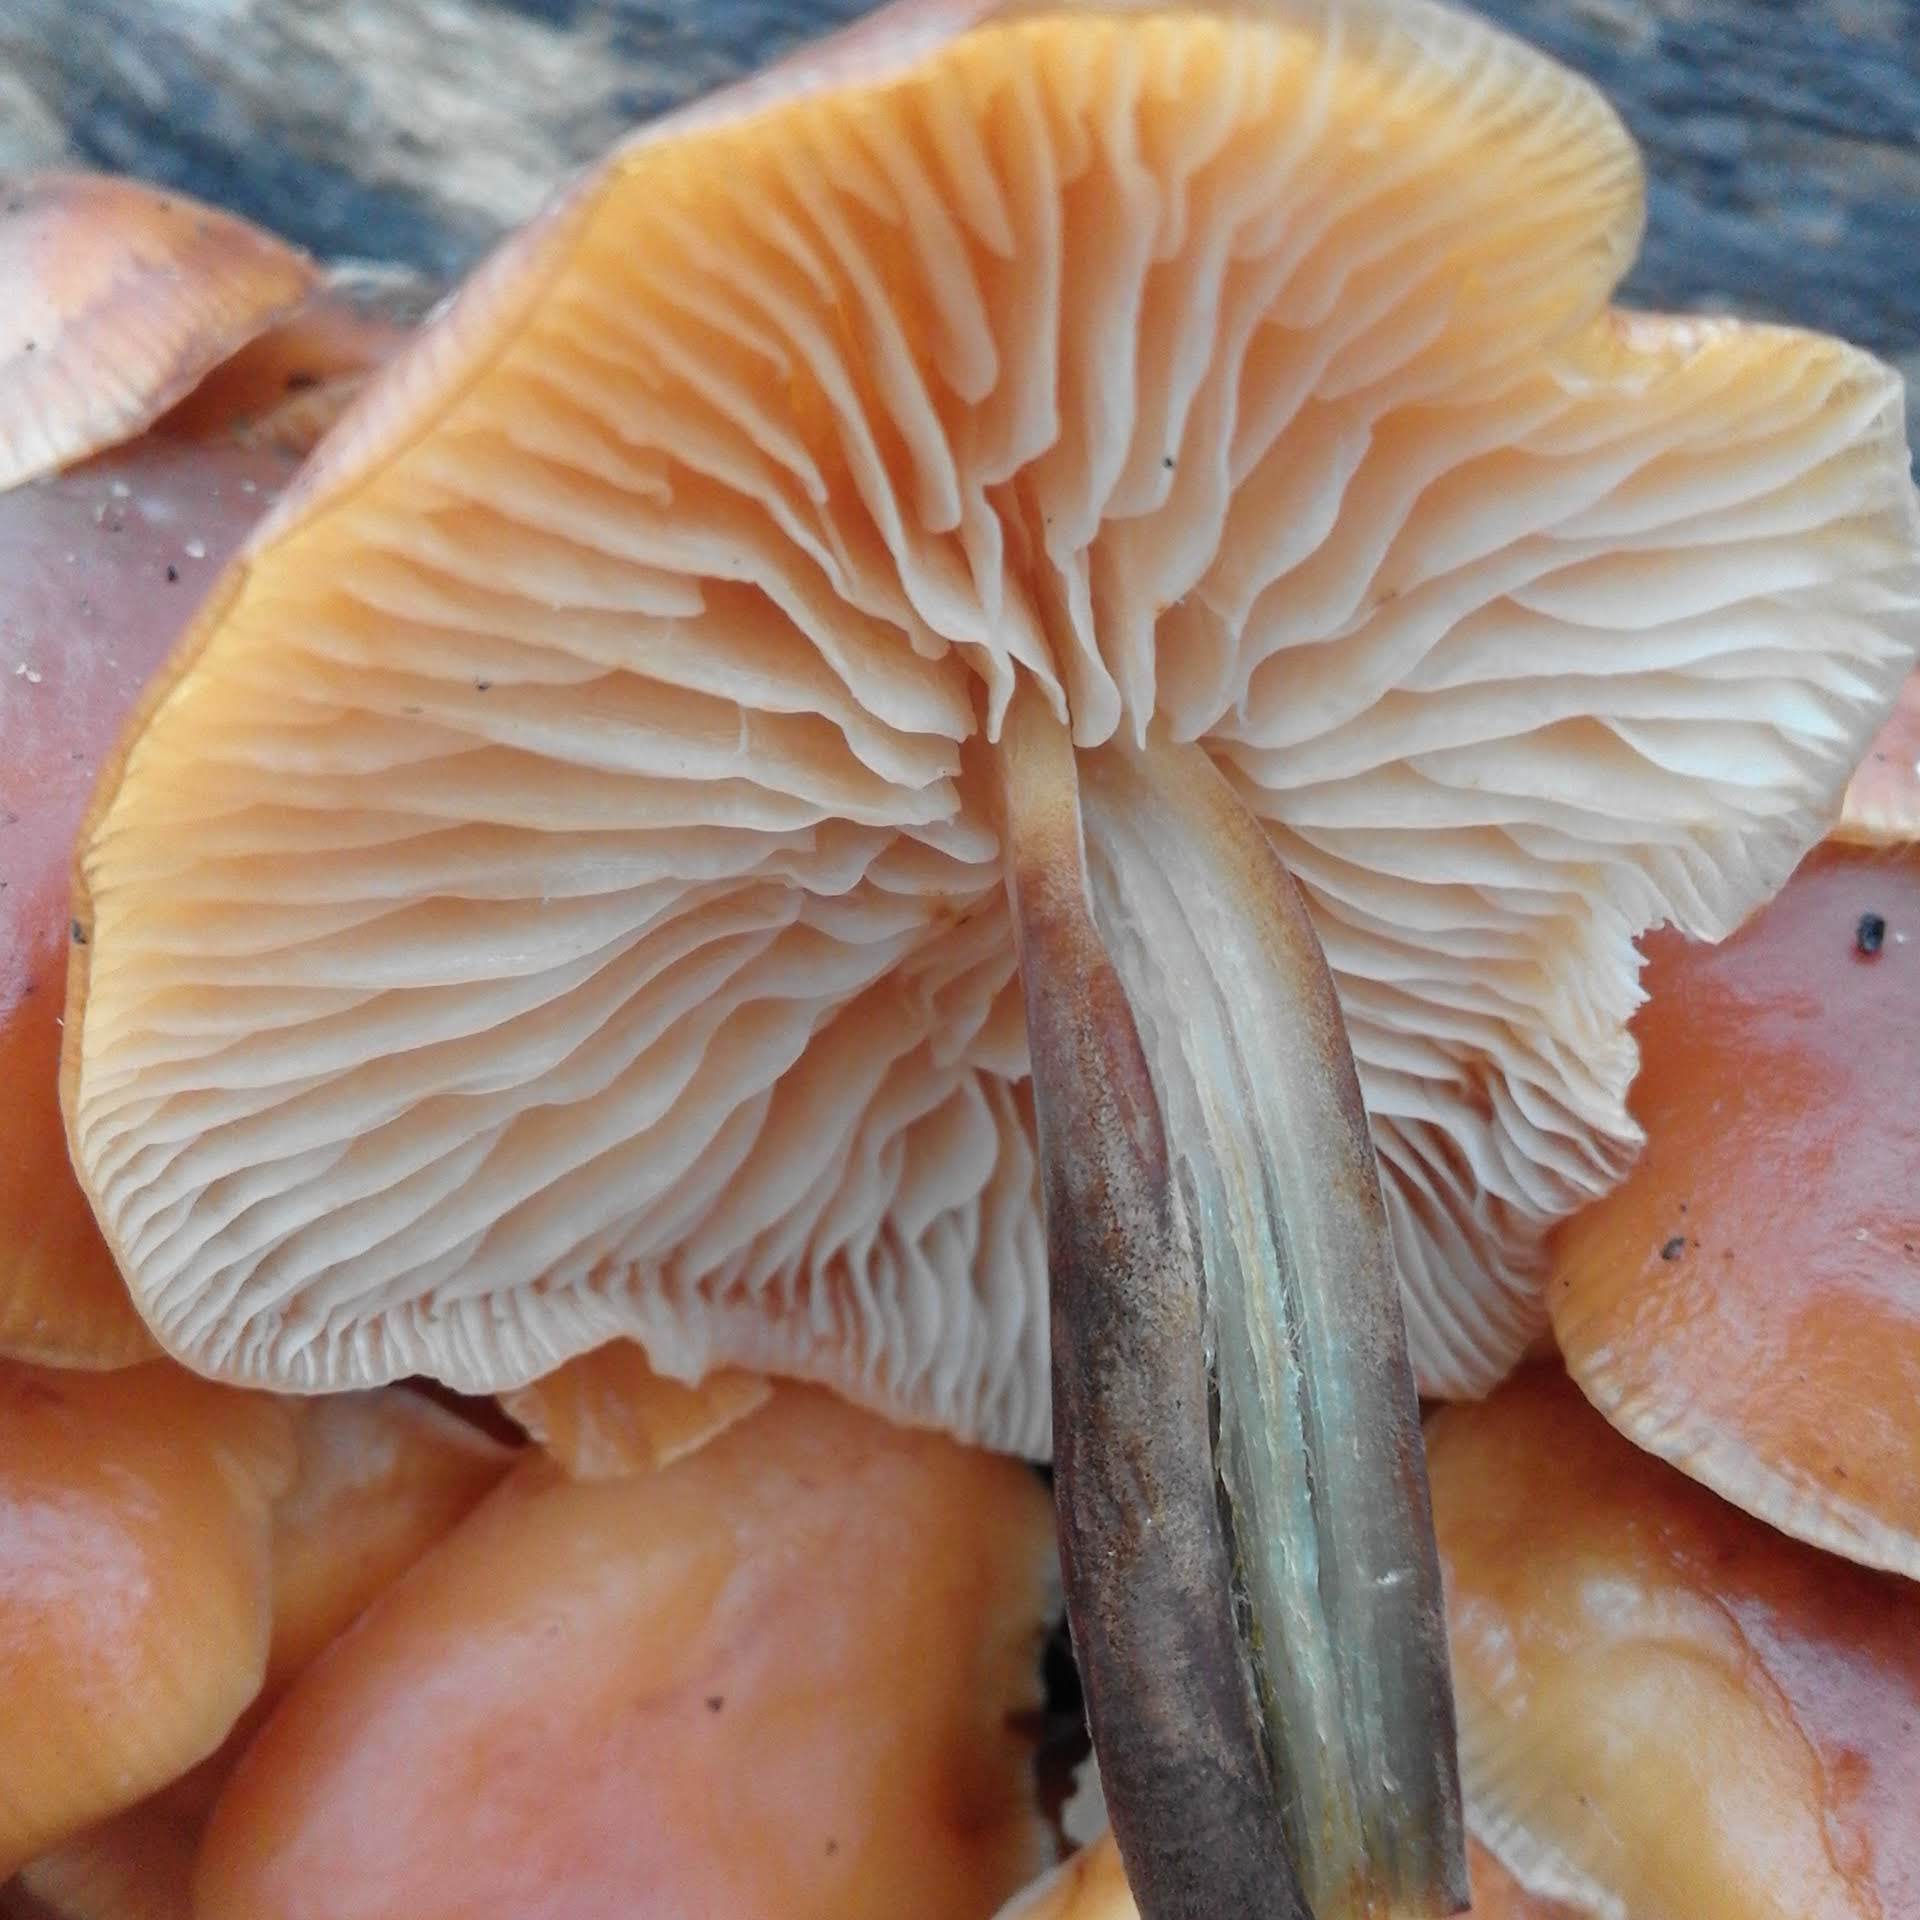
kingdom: Fungi
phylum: Basidiomycota
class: Agaricomycetes
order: Agaricales
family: Physalacriaceae
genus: Flammulina
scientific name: Flammulina
